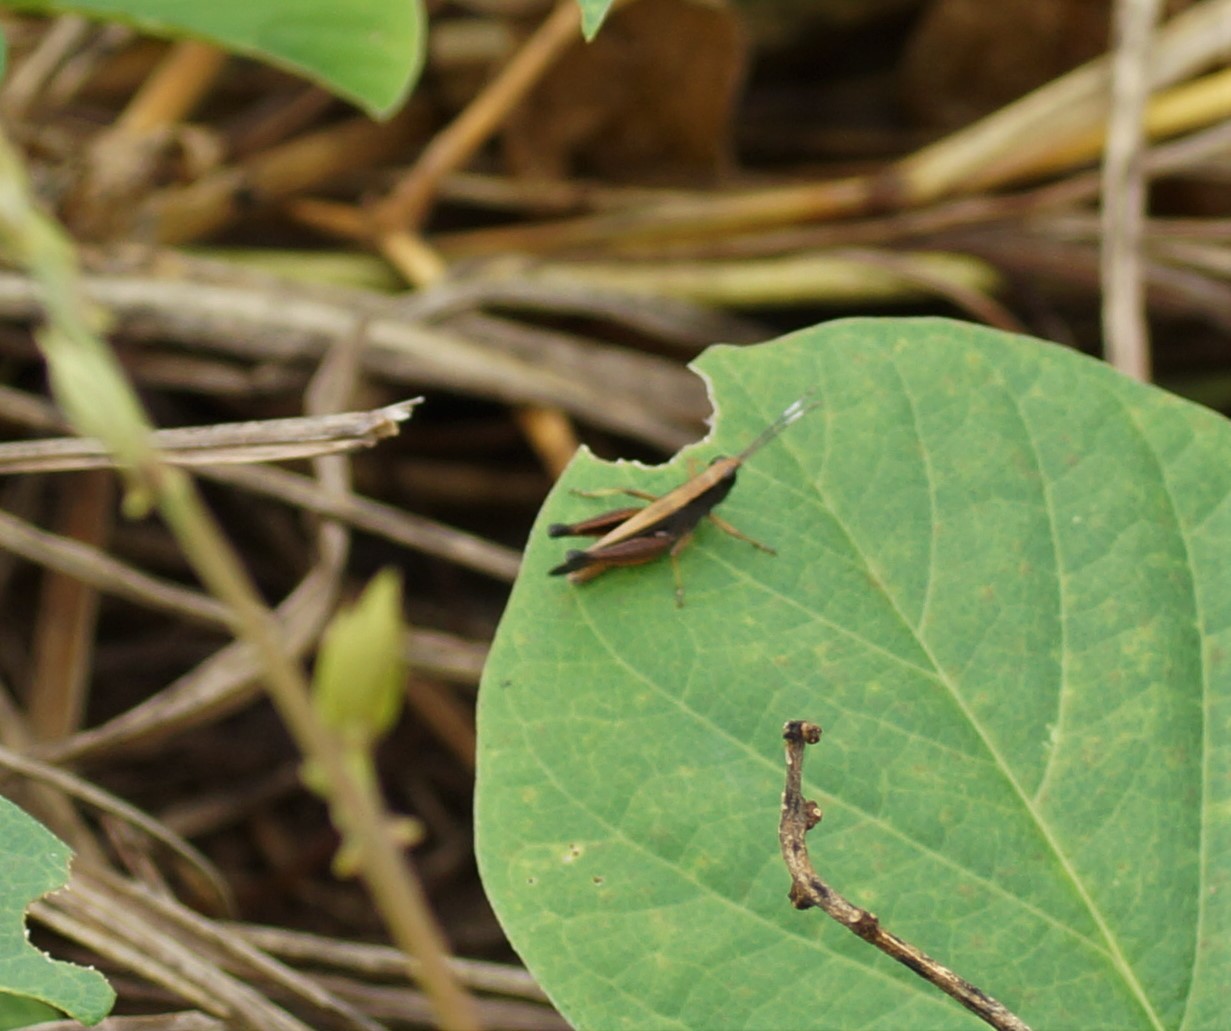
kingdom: Animalia
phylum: Arthropoda
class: Insecta
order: Orthoptera
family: Acrididae
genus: Rectitropis
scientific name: Rectitropis
